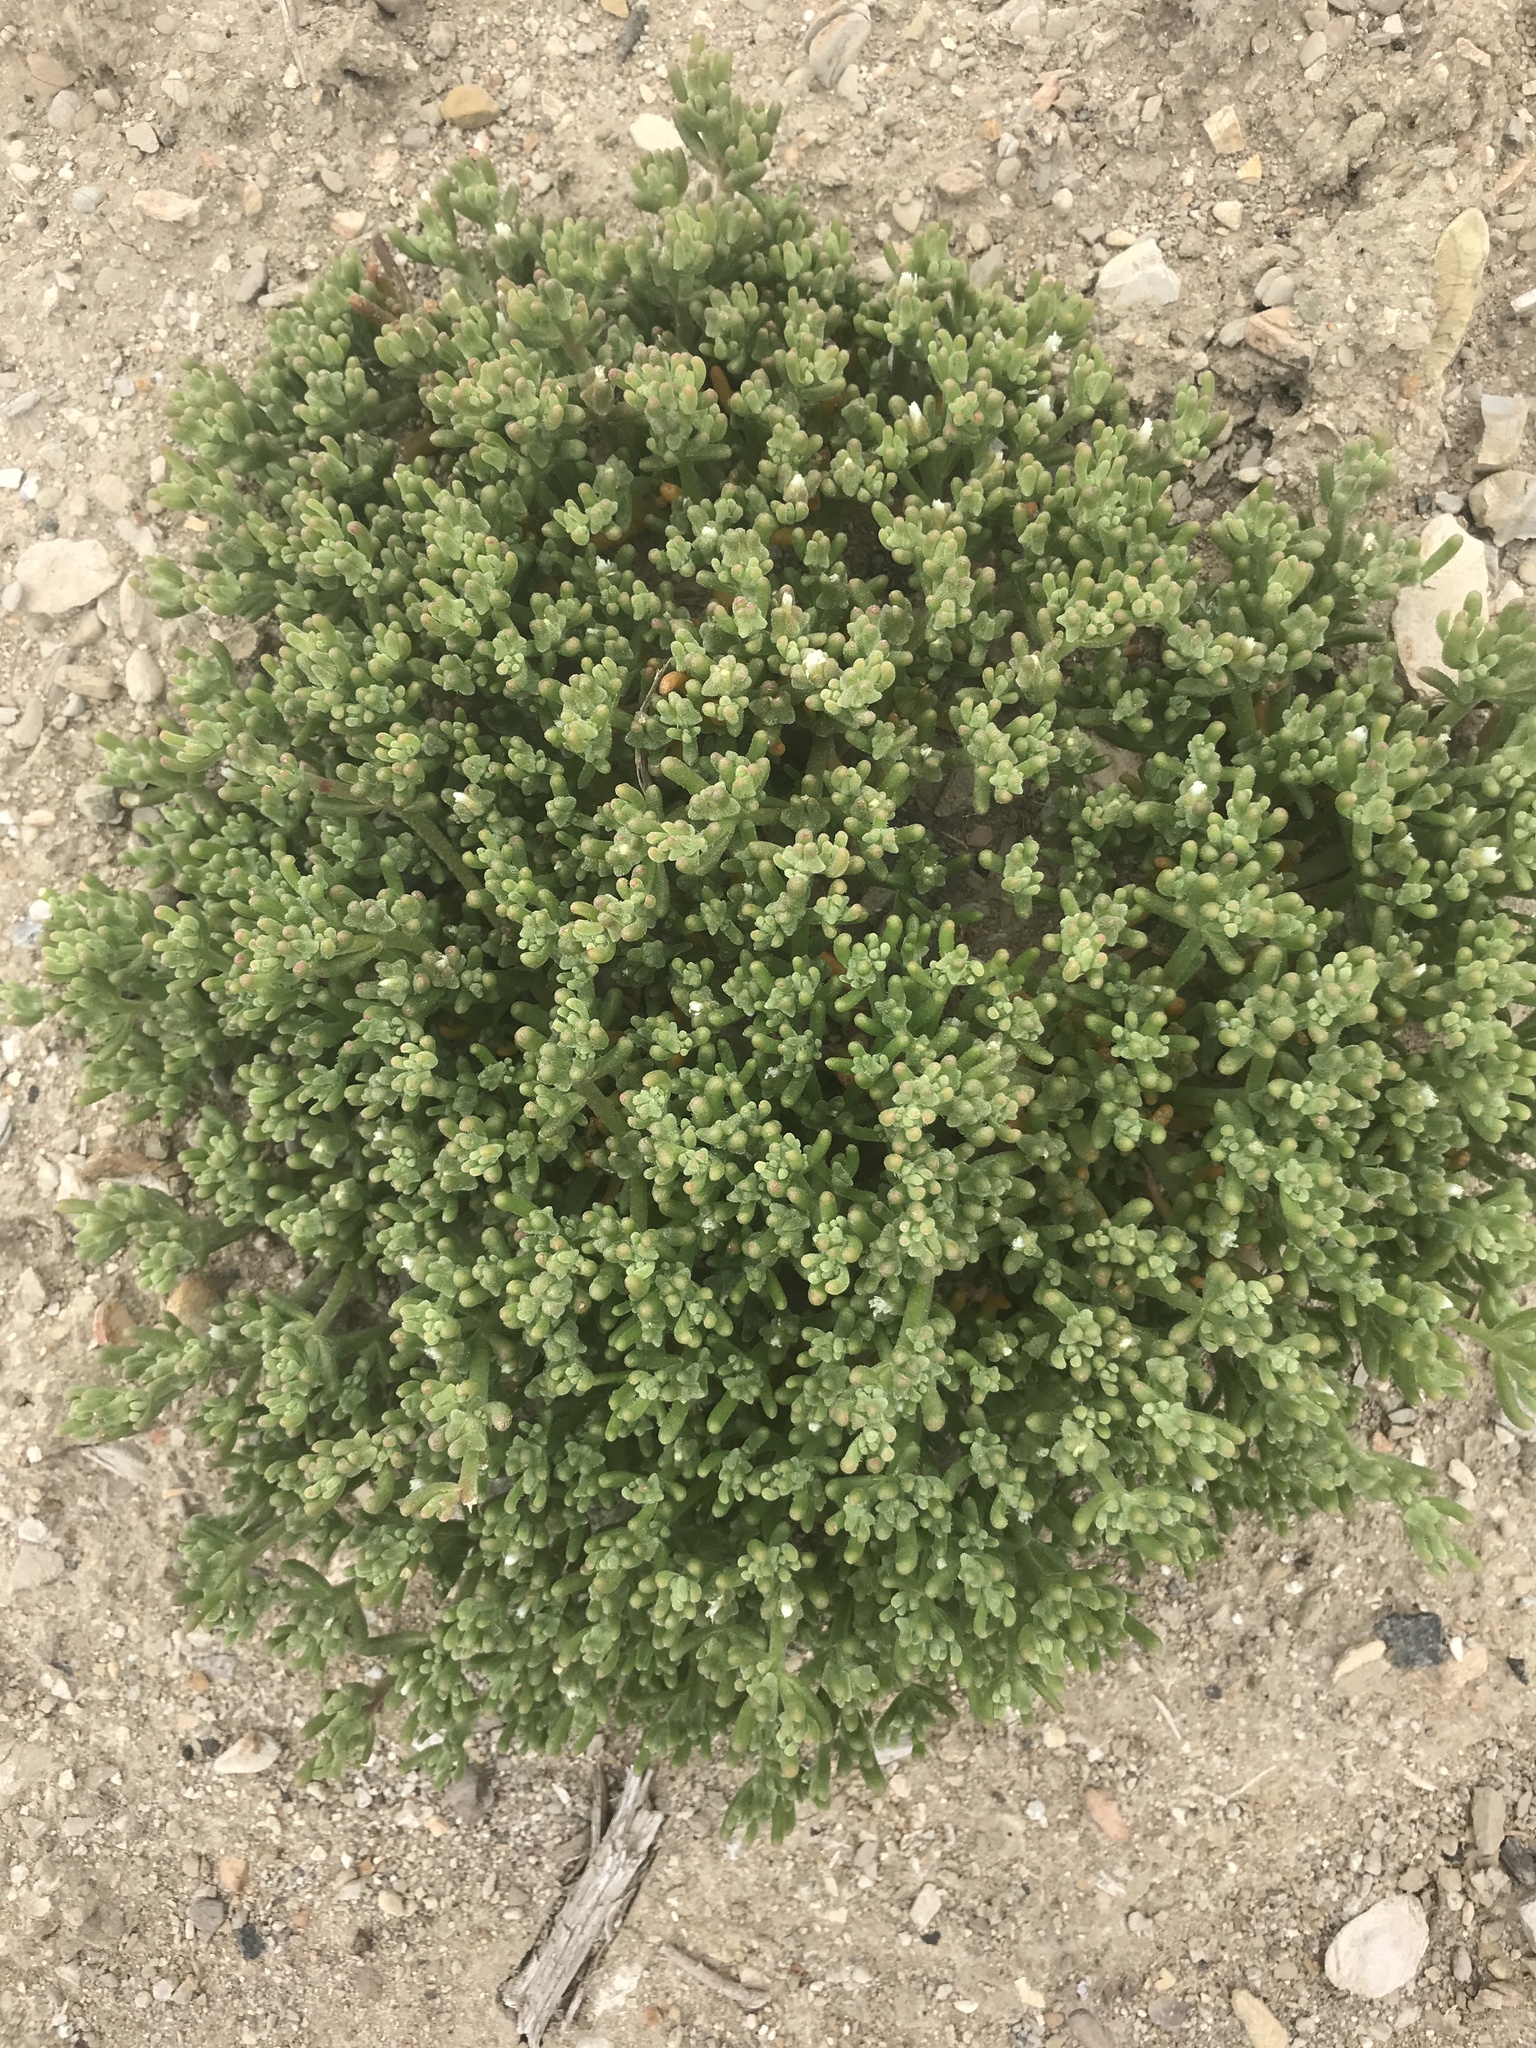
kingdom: Plantae
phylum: Tracheophyta
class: Magnoliopsida
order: Caryophyllales
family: Aizoaceae
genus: Mesembryanthemum
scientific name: Mesembryanthemum nodiflorum
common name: Slenderleaf iceplant
